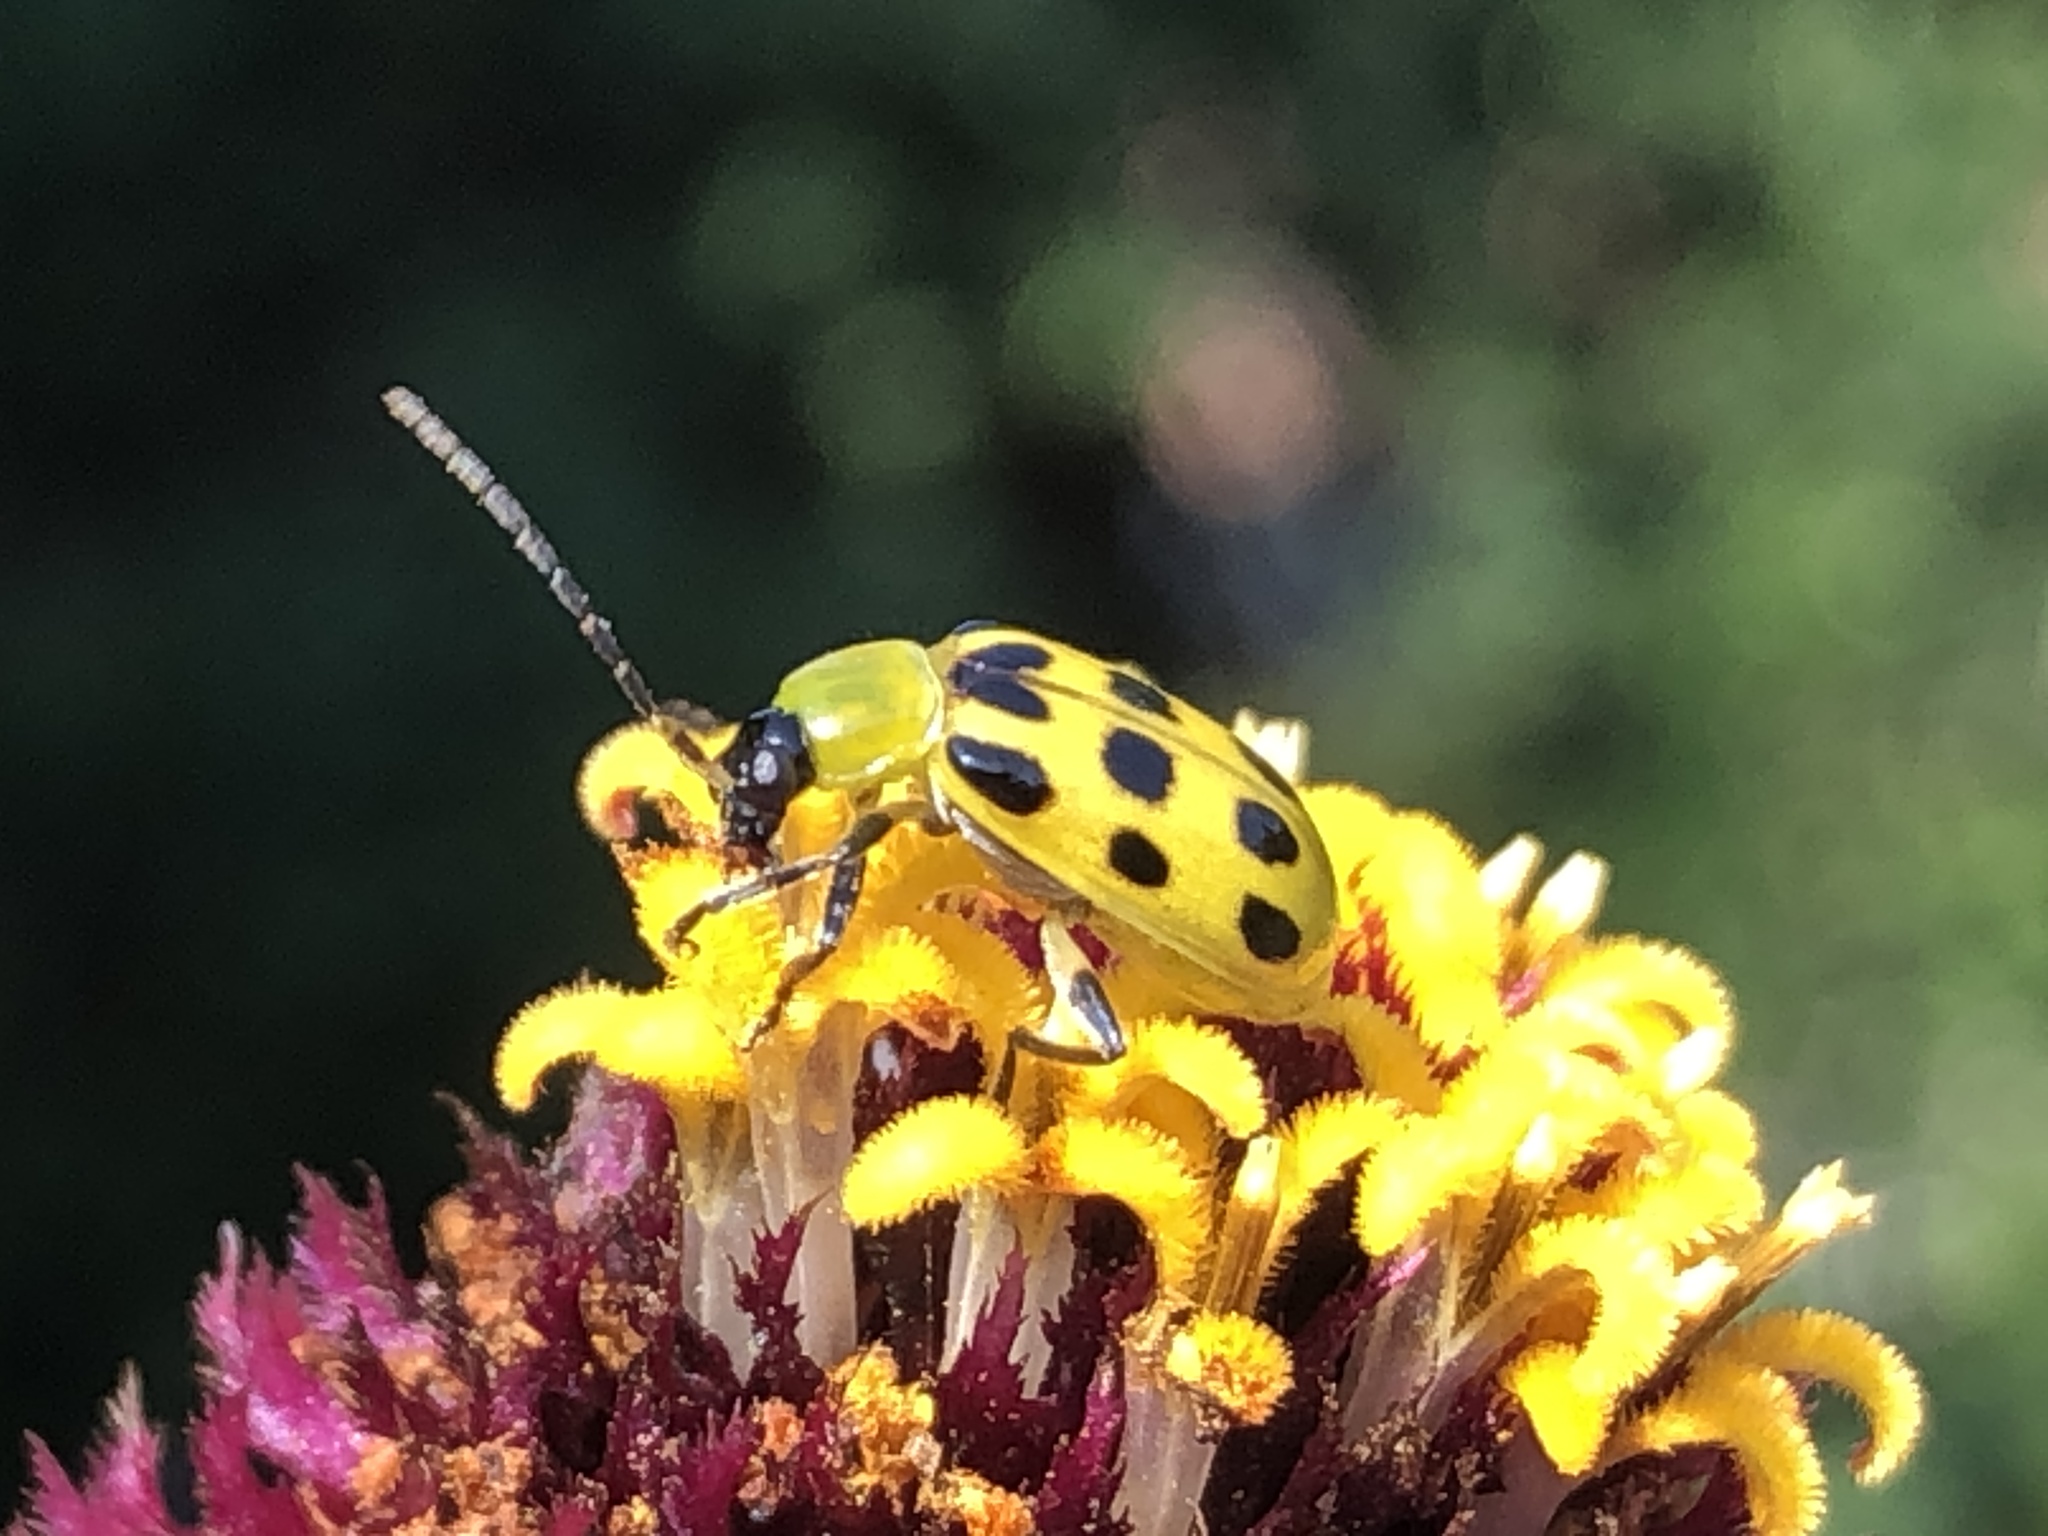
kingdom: Animalia
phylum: Arthropoda
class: Insecta
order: Coleoptera
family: Chrysomelidae
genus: Diabrotica
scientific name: Diabrotica undecimpunctata
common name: Spotted cucumber beetle
